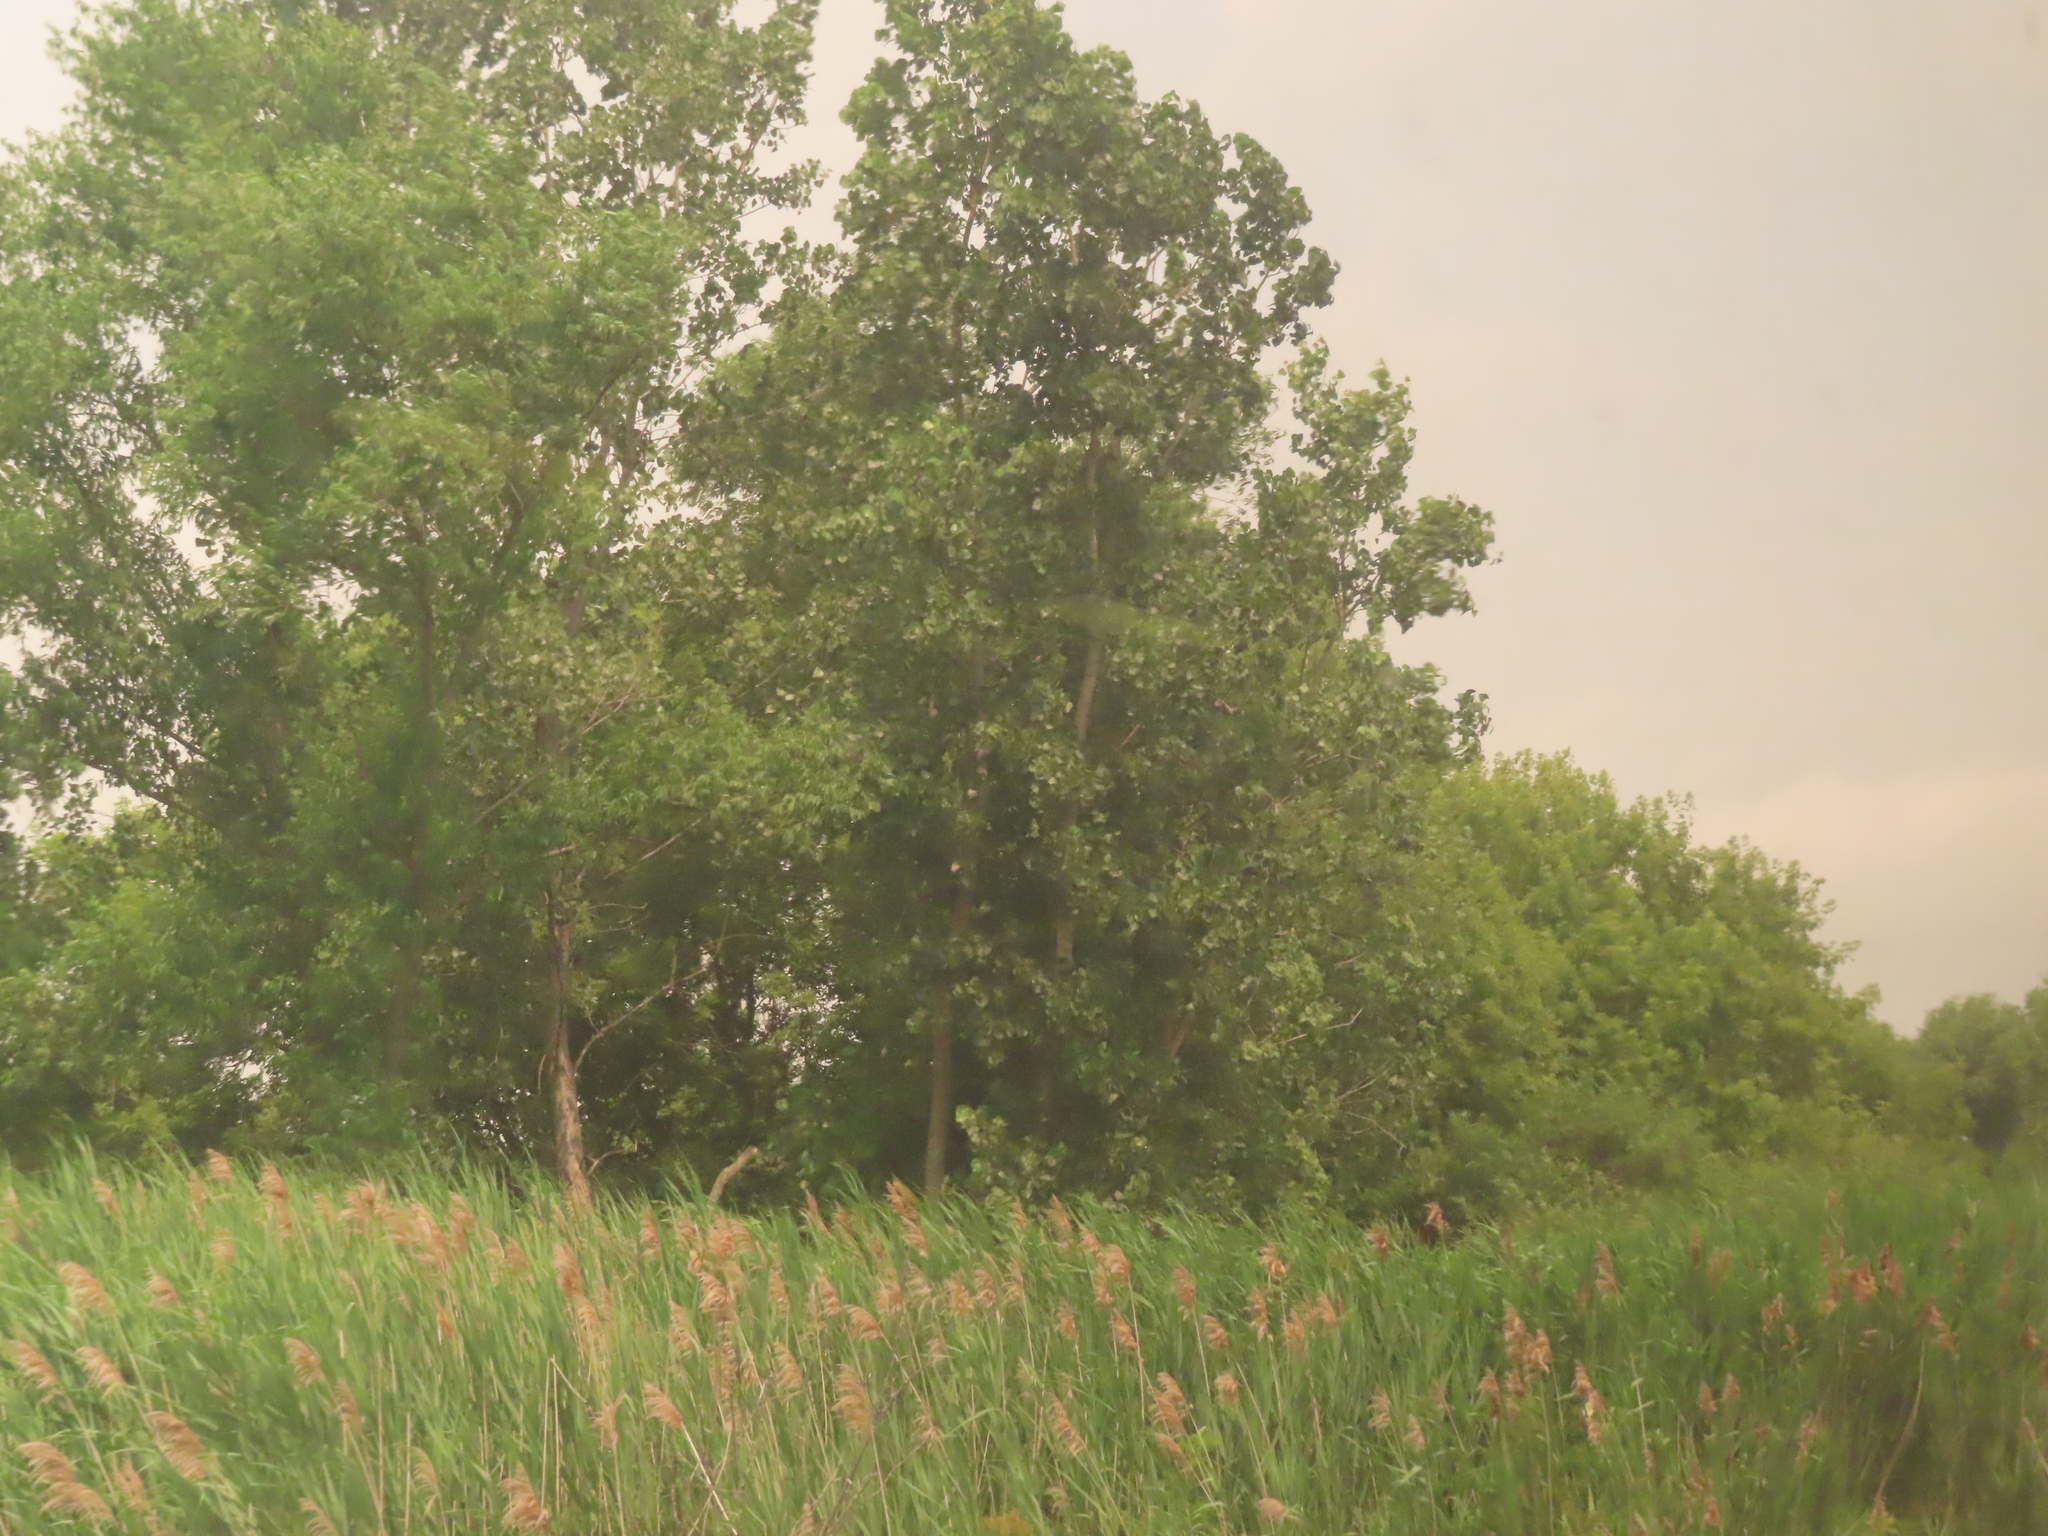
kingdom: Plantae
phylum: Tracheophyta
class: Liliopsida
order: Poales
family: Poaceae
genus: Phragmites
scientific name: Phragmites australis
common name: Common reed
